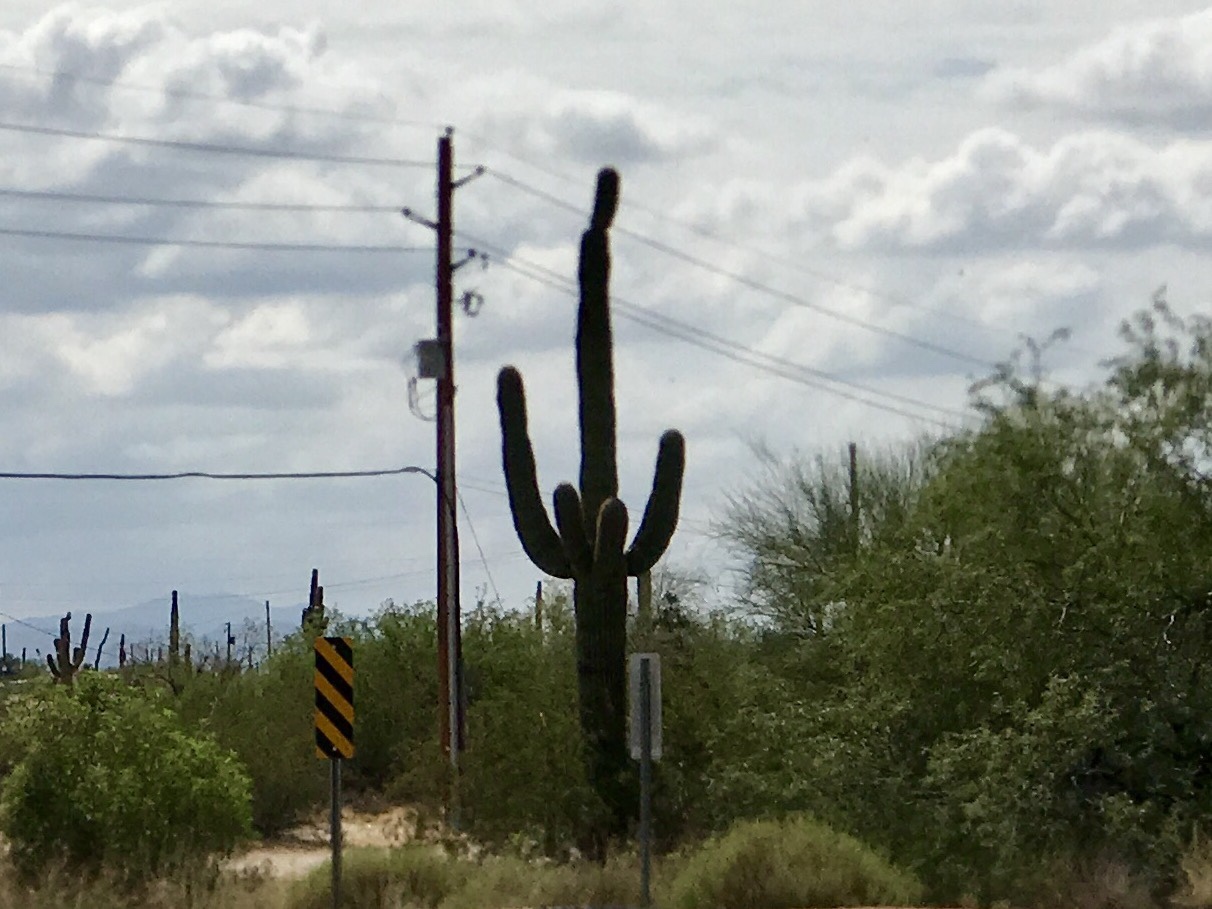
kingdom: Plantae
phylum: Tracheophyta
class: Magnoliopsida
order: Caryophyllales
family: Cactaceae
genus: Carnegiea
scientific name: Carnegiea gigantea
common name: Saguaro
